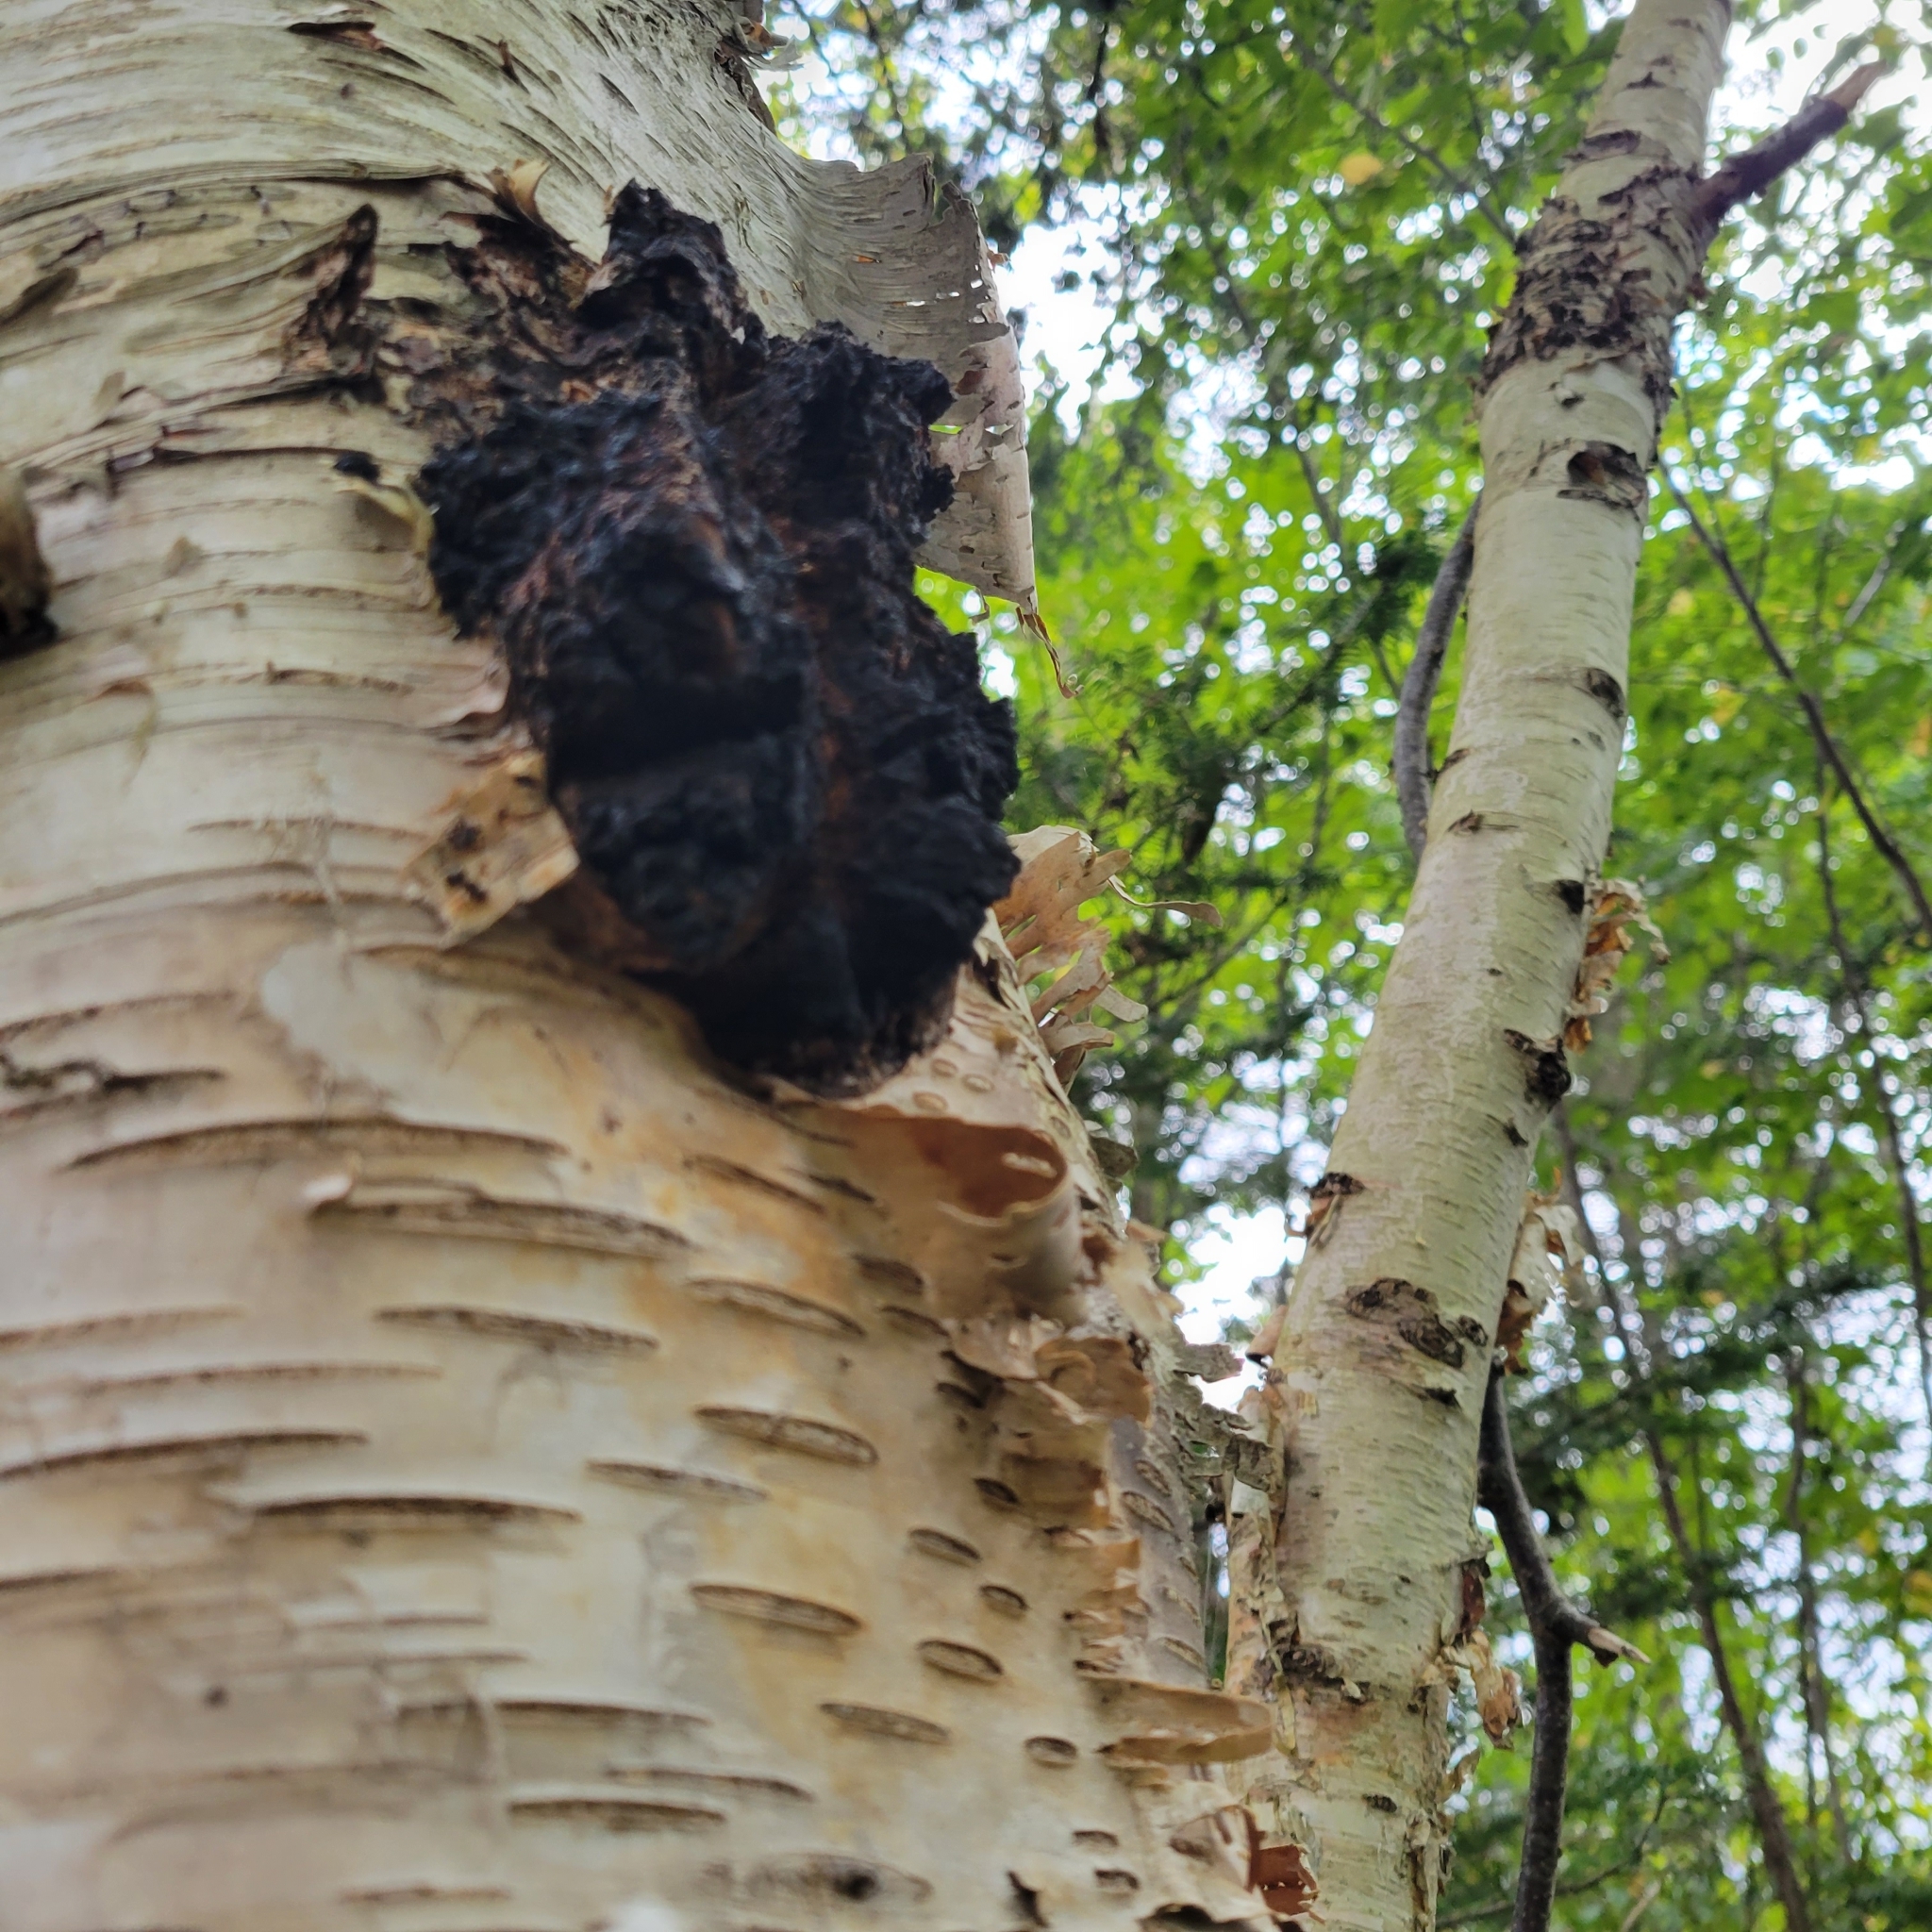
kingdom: Fungi
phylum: Basidiomycota
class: Agaricomycetes
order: Hymenochaetales
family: Hymenochaetaceae
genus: Inonotus
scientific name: Inonotus obliquus
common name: Chaga
